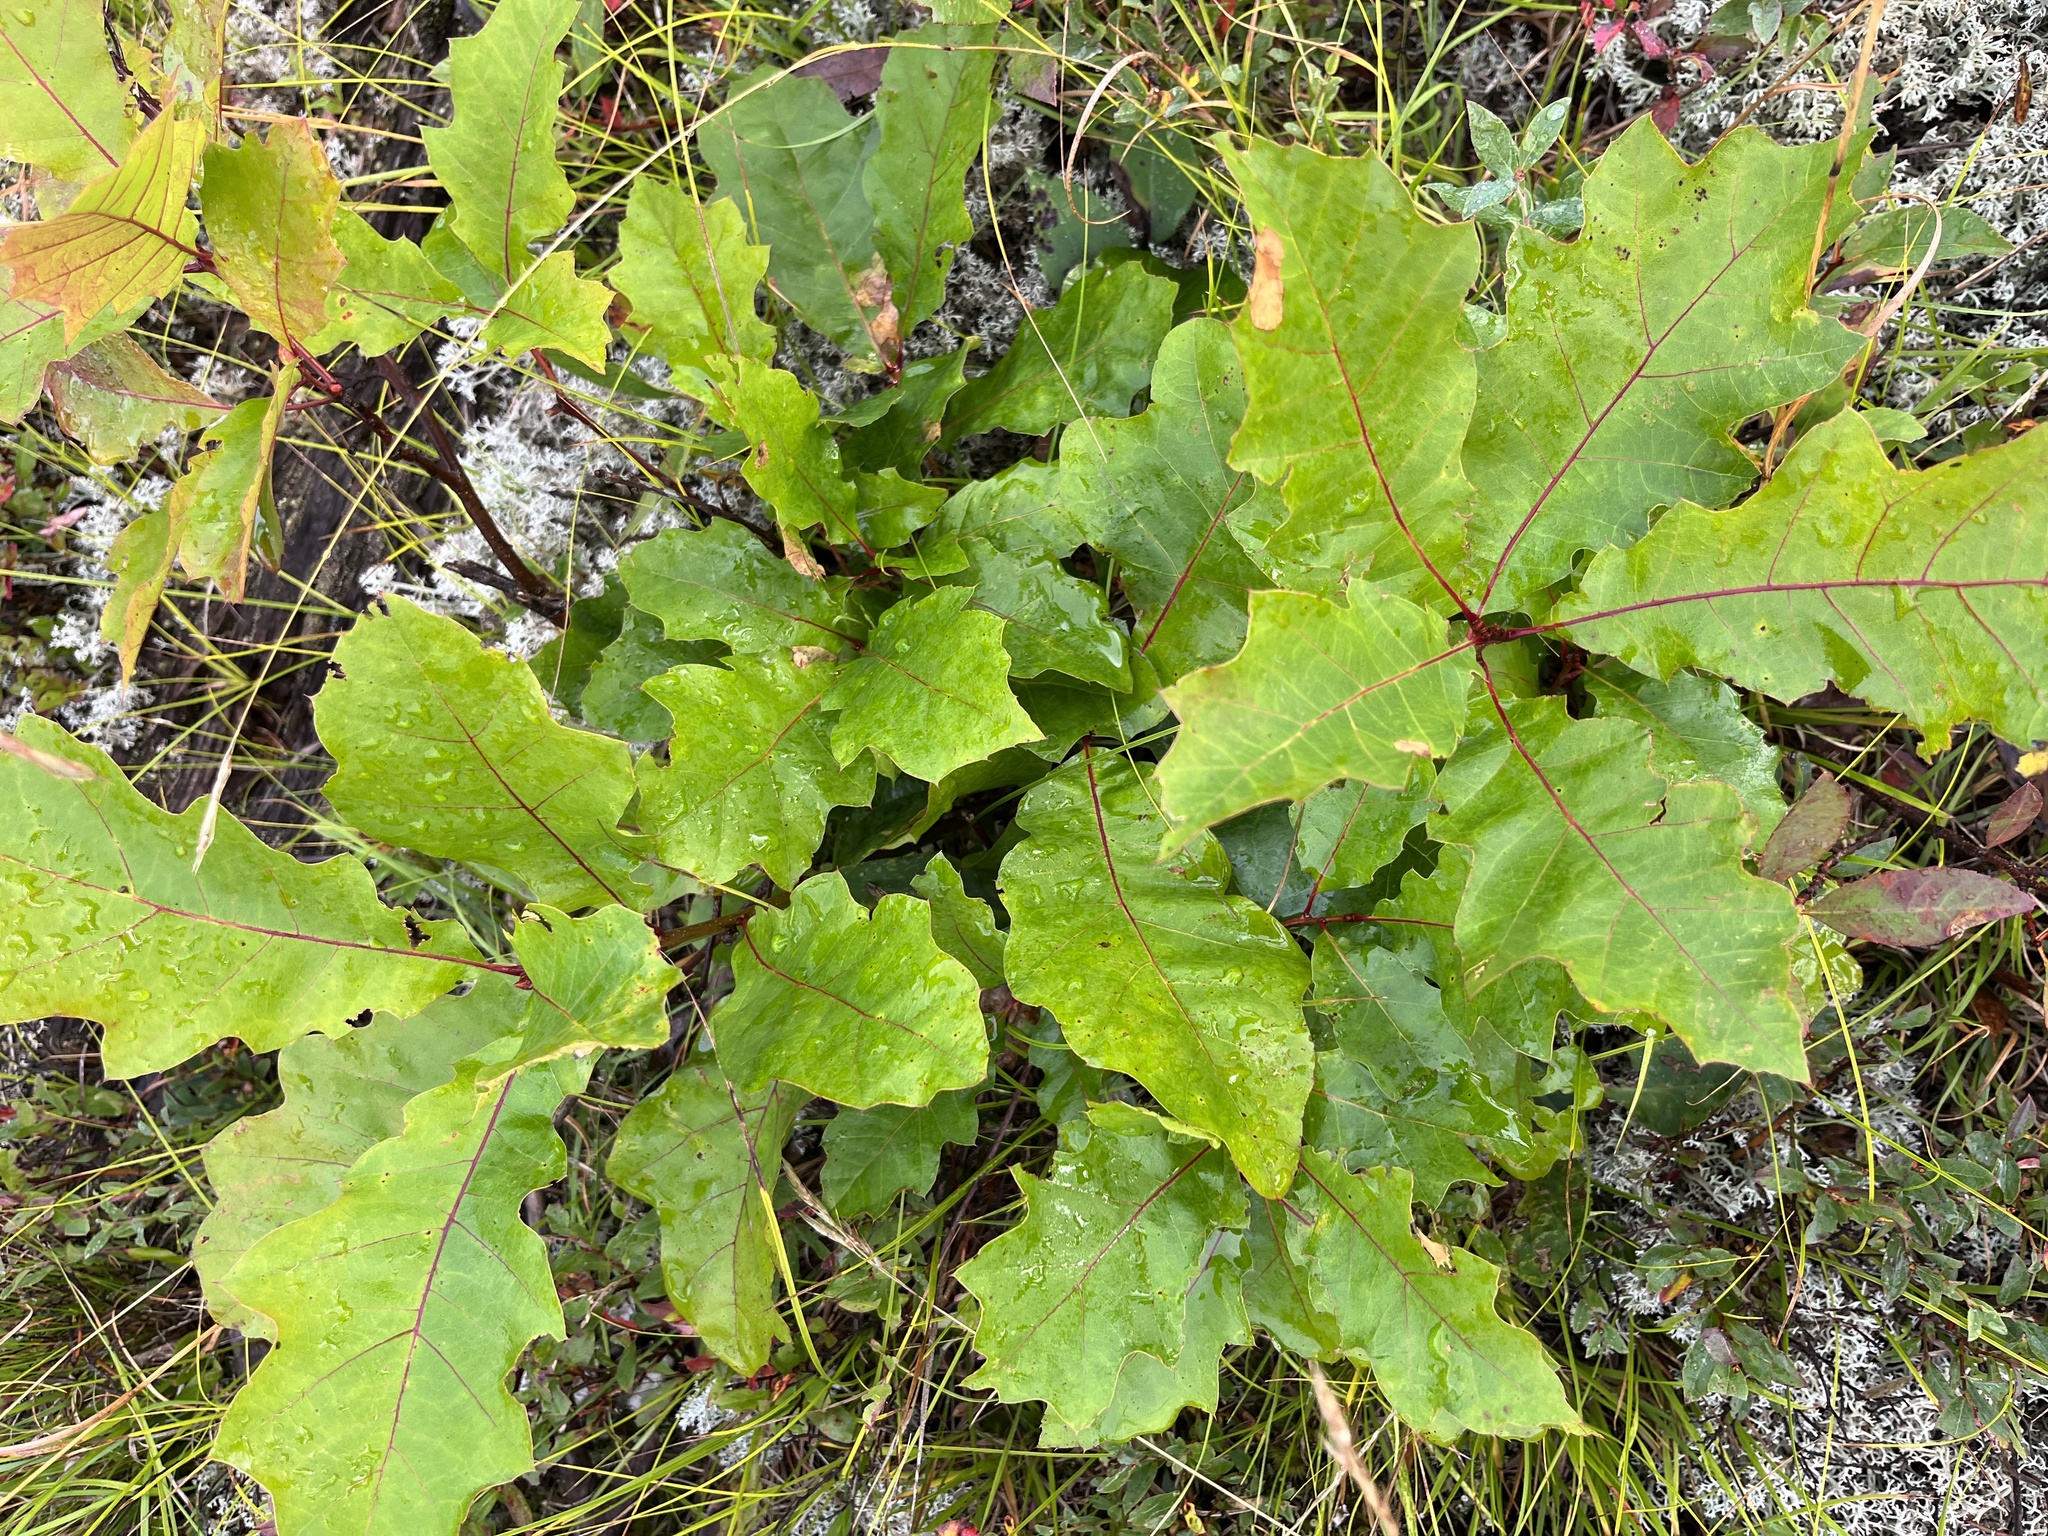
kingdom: Plantae
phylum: Tracheophyta
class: Magnoliopsida
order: Fagales
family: Fagaceae
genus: Quercus
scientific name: Quercus rubra
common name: Red oak
